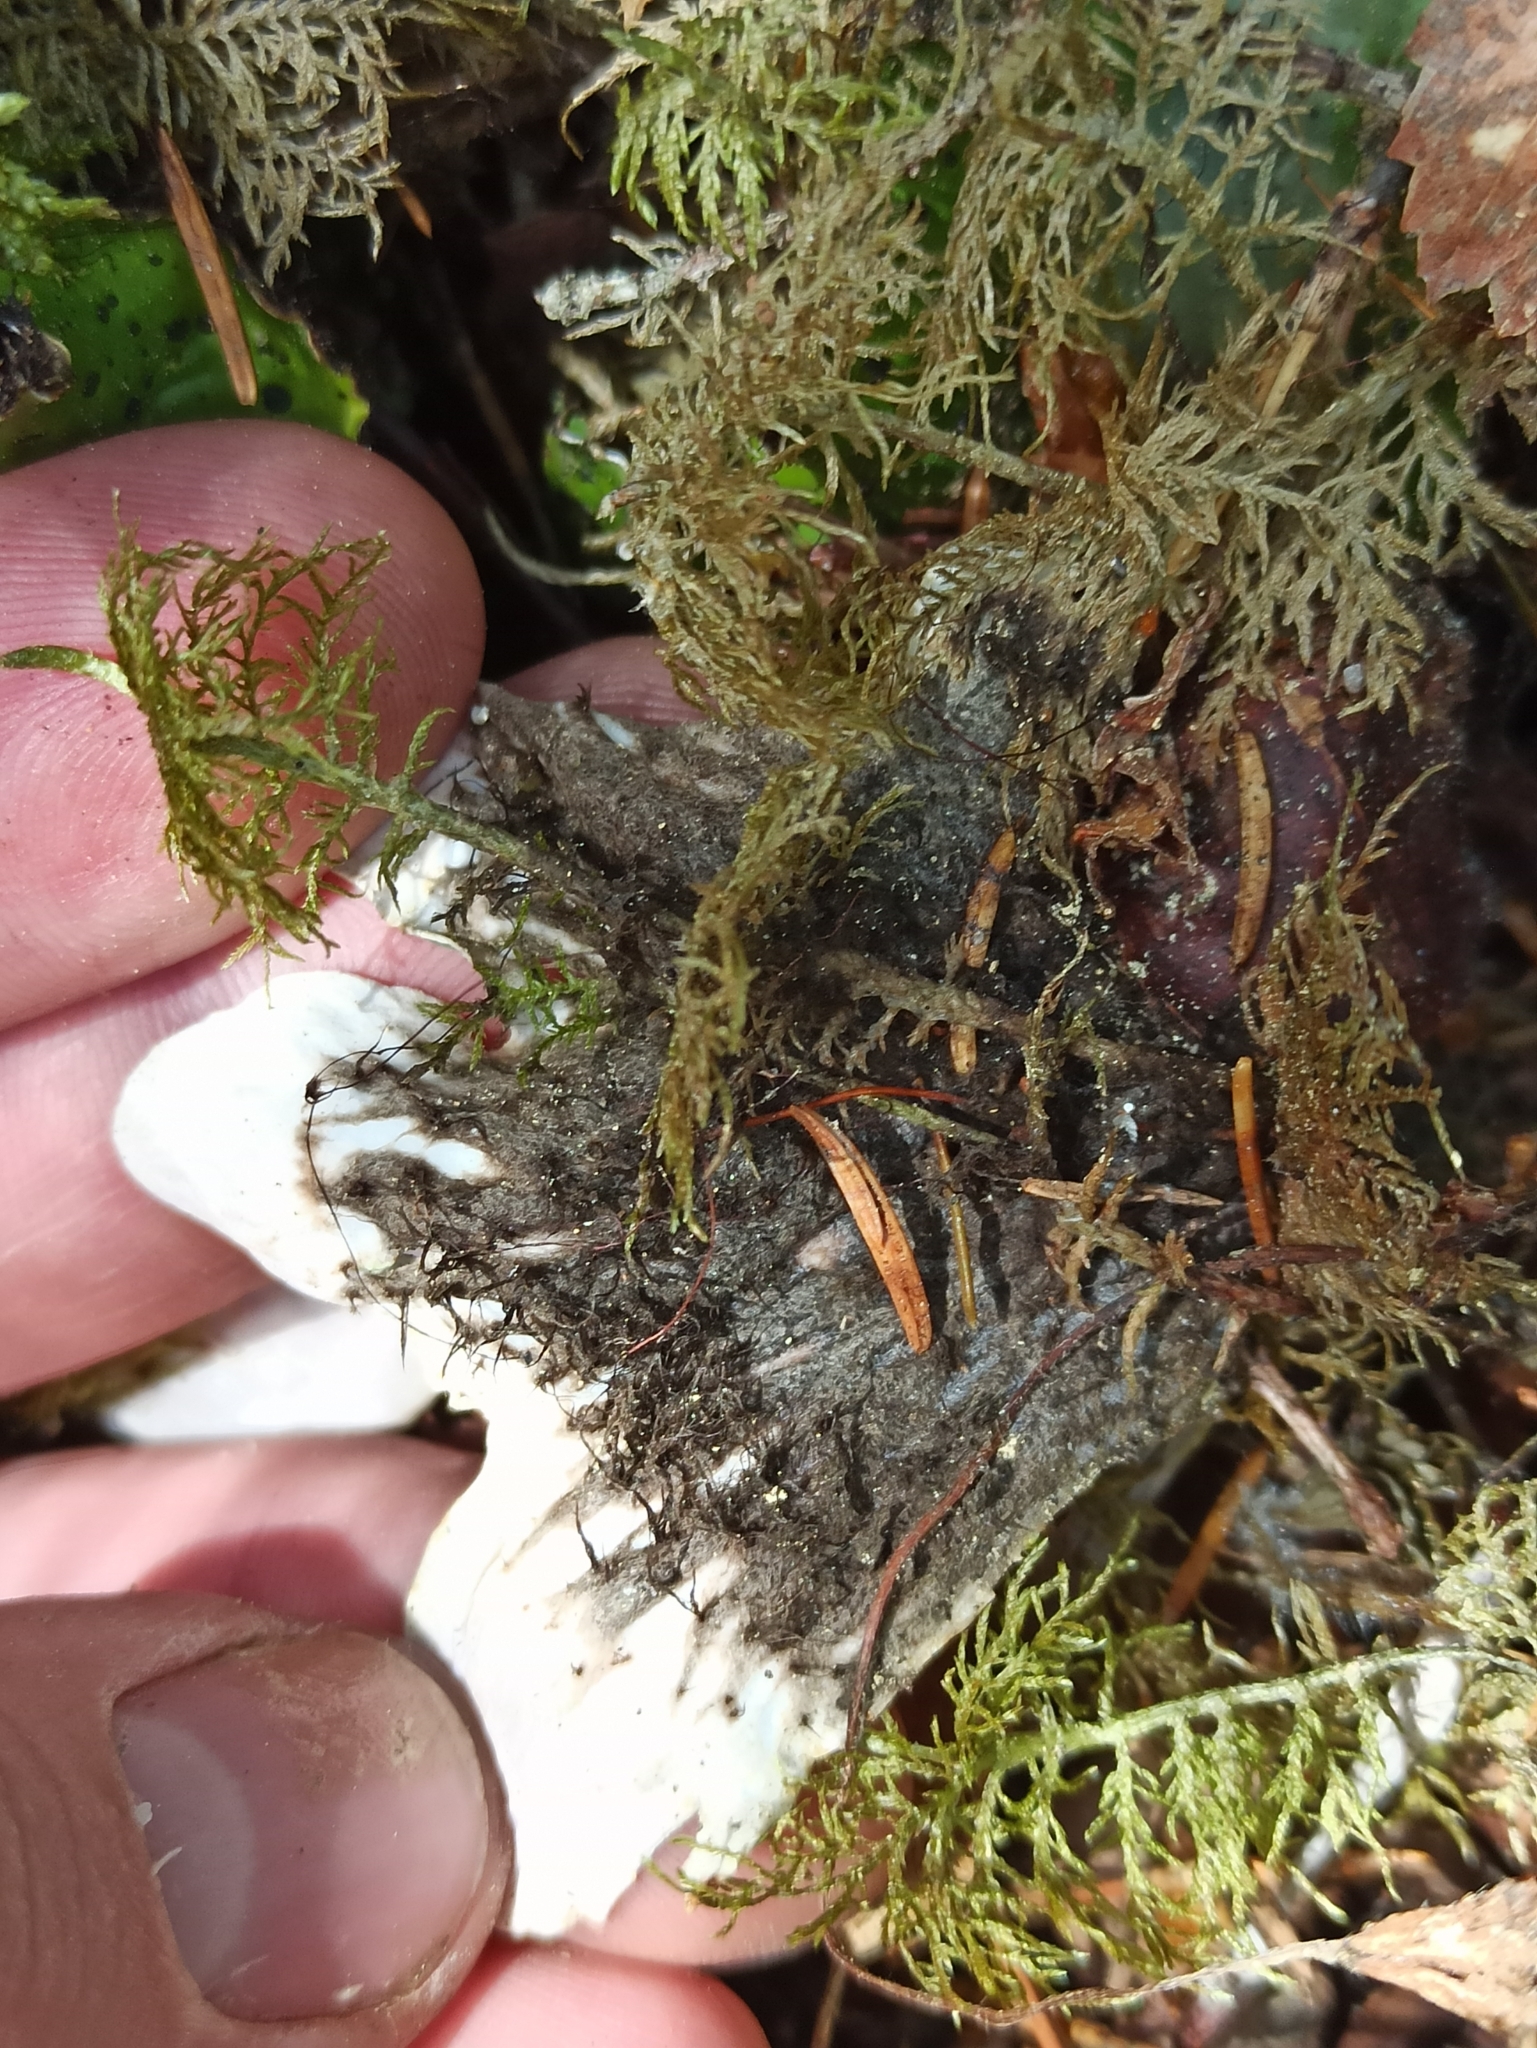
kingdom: Fungi
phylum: Ascomycota
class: Lecanoromycetes
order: Peltigerales
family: Peltigeraceae
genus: Peltigera
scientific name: Peltigera aphthosa
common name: Common freckle pelt lichen
